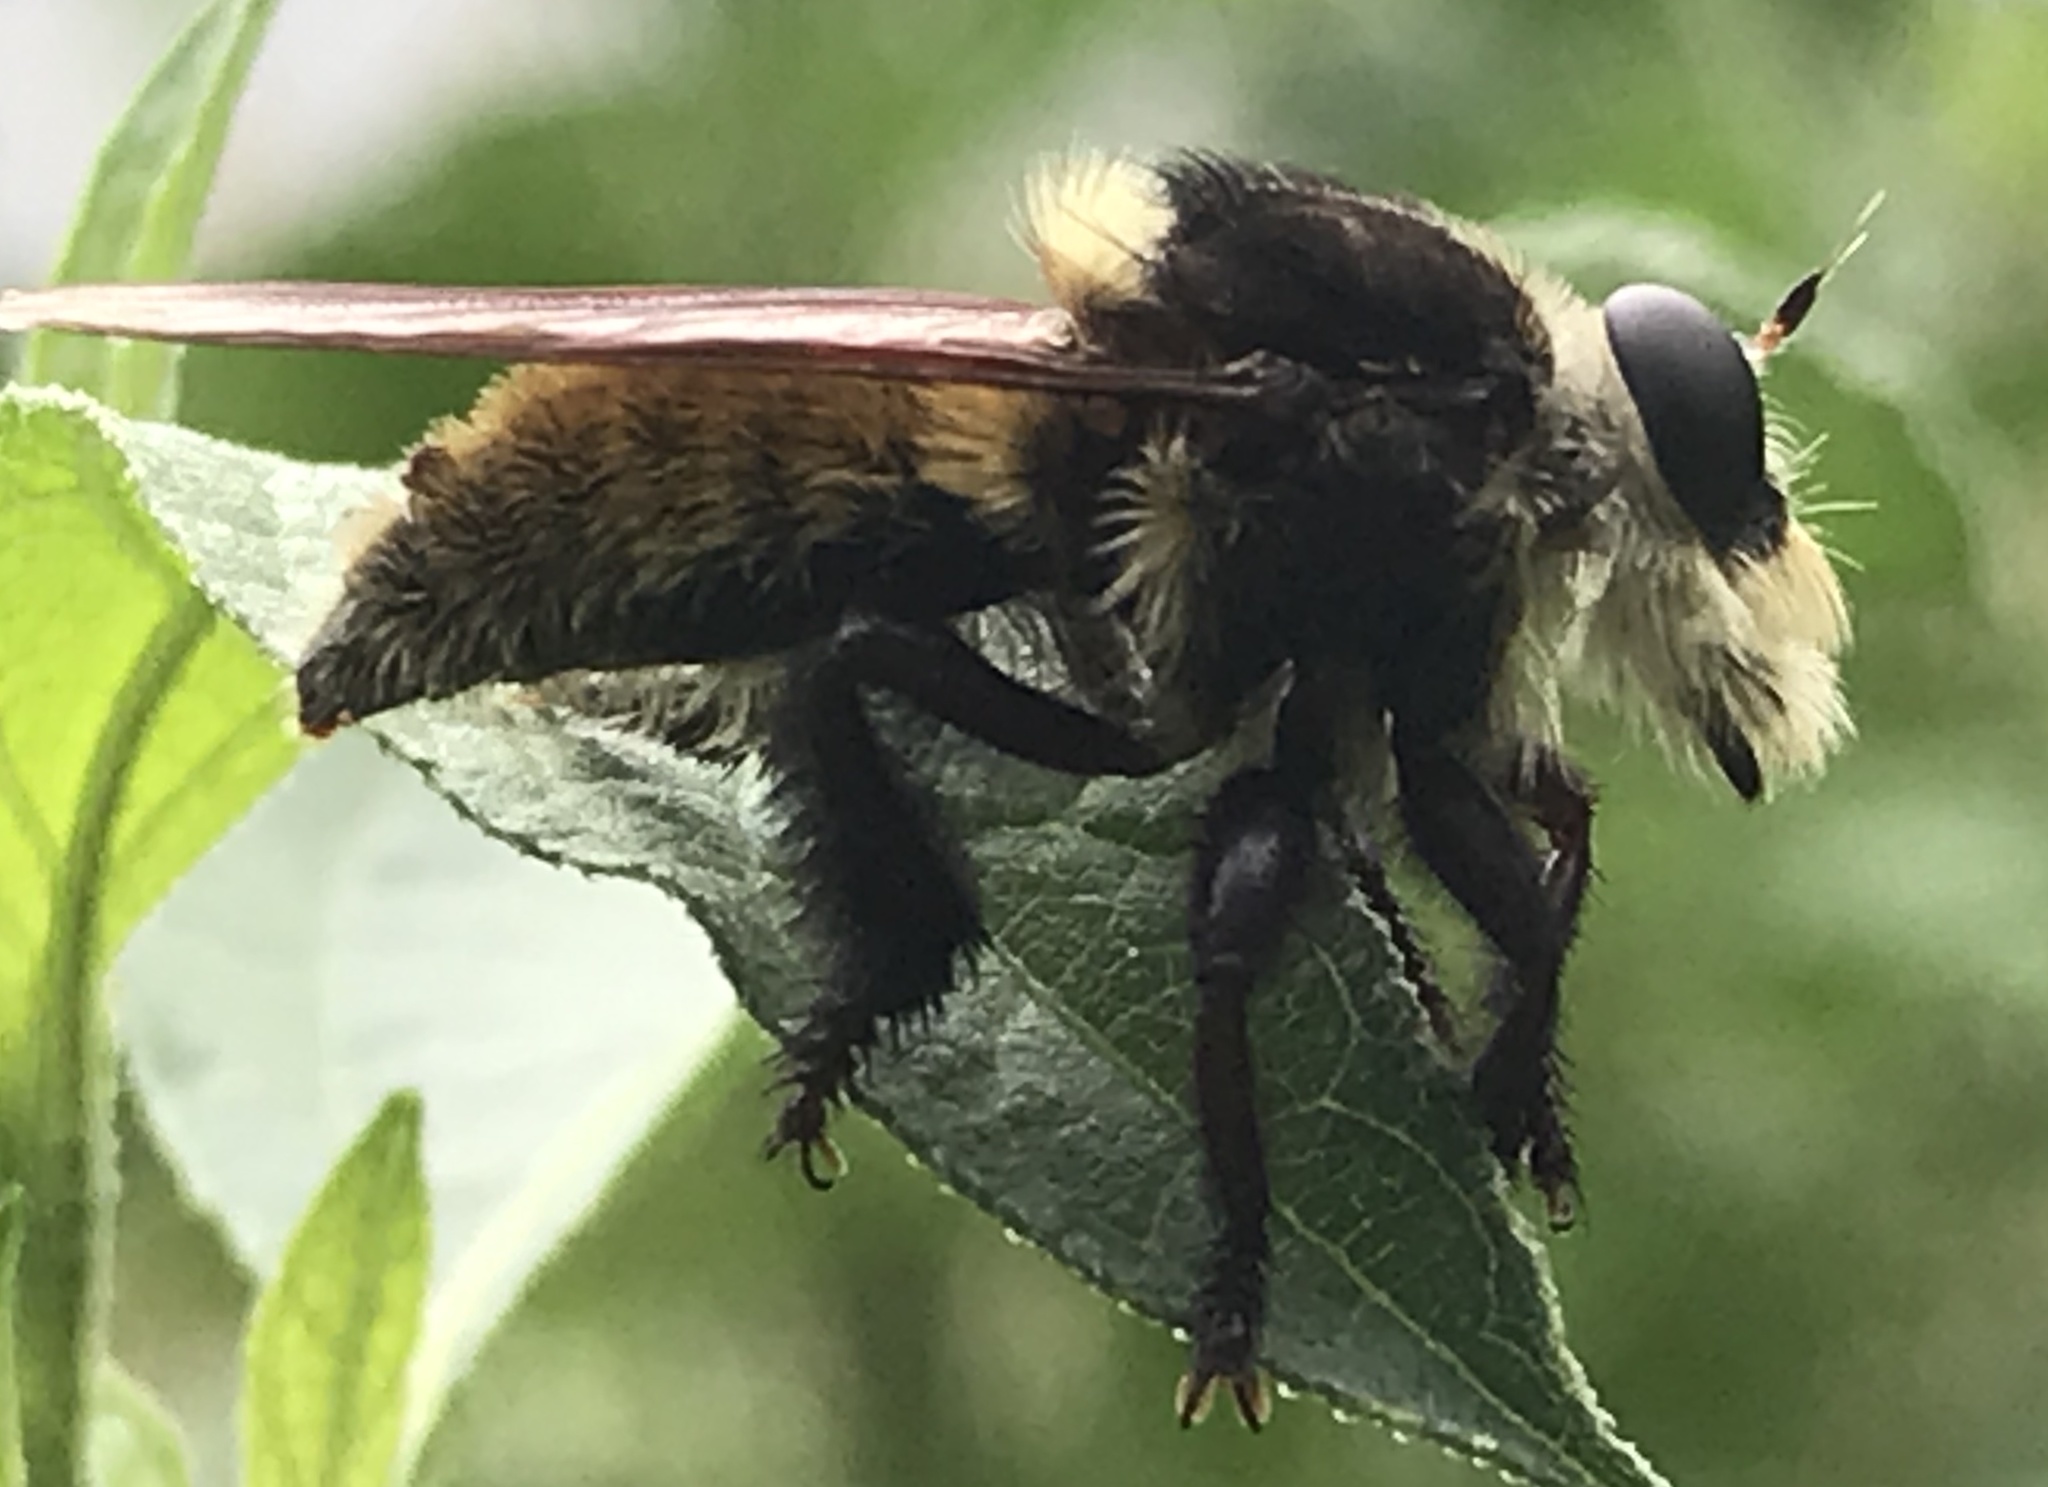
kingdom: Animalia
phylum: Arthropoda
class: Insecta
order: Diptera
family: Asilidae
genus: Mallophora
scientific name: Mallophora fautrix
